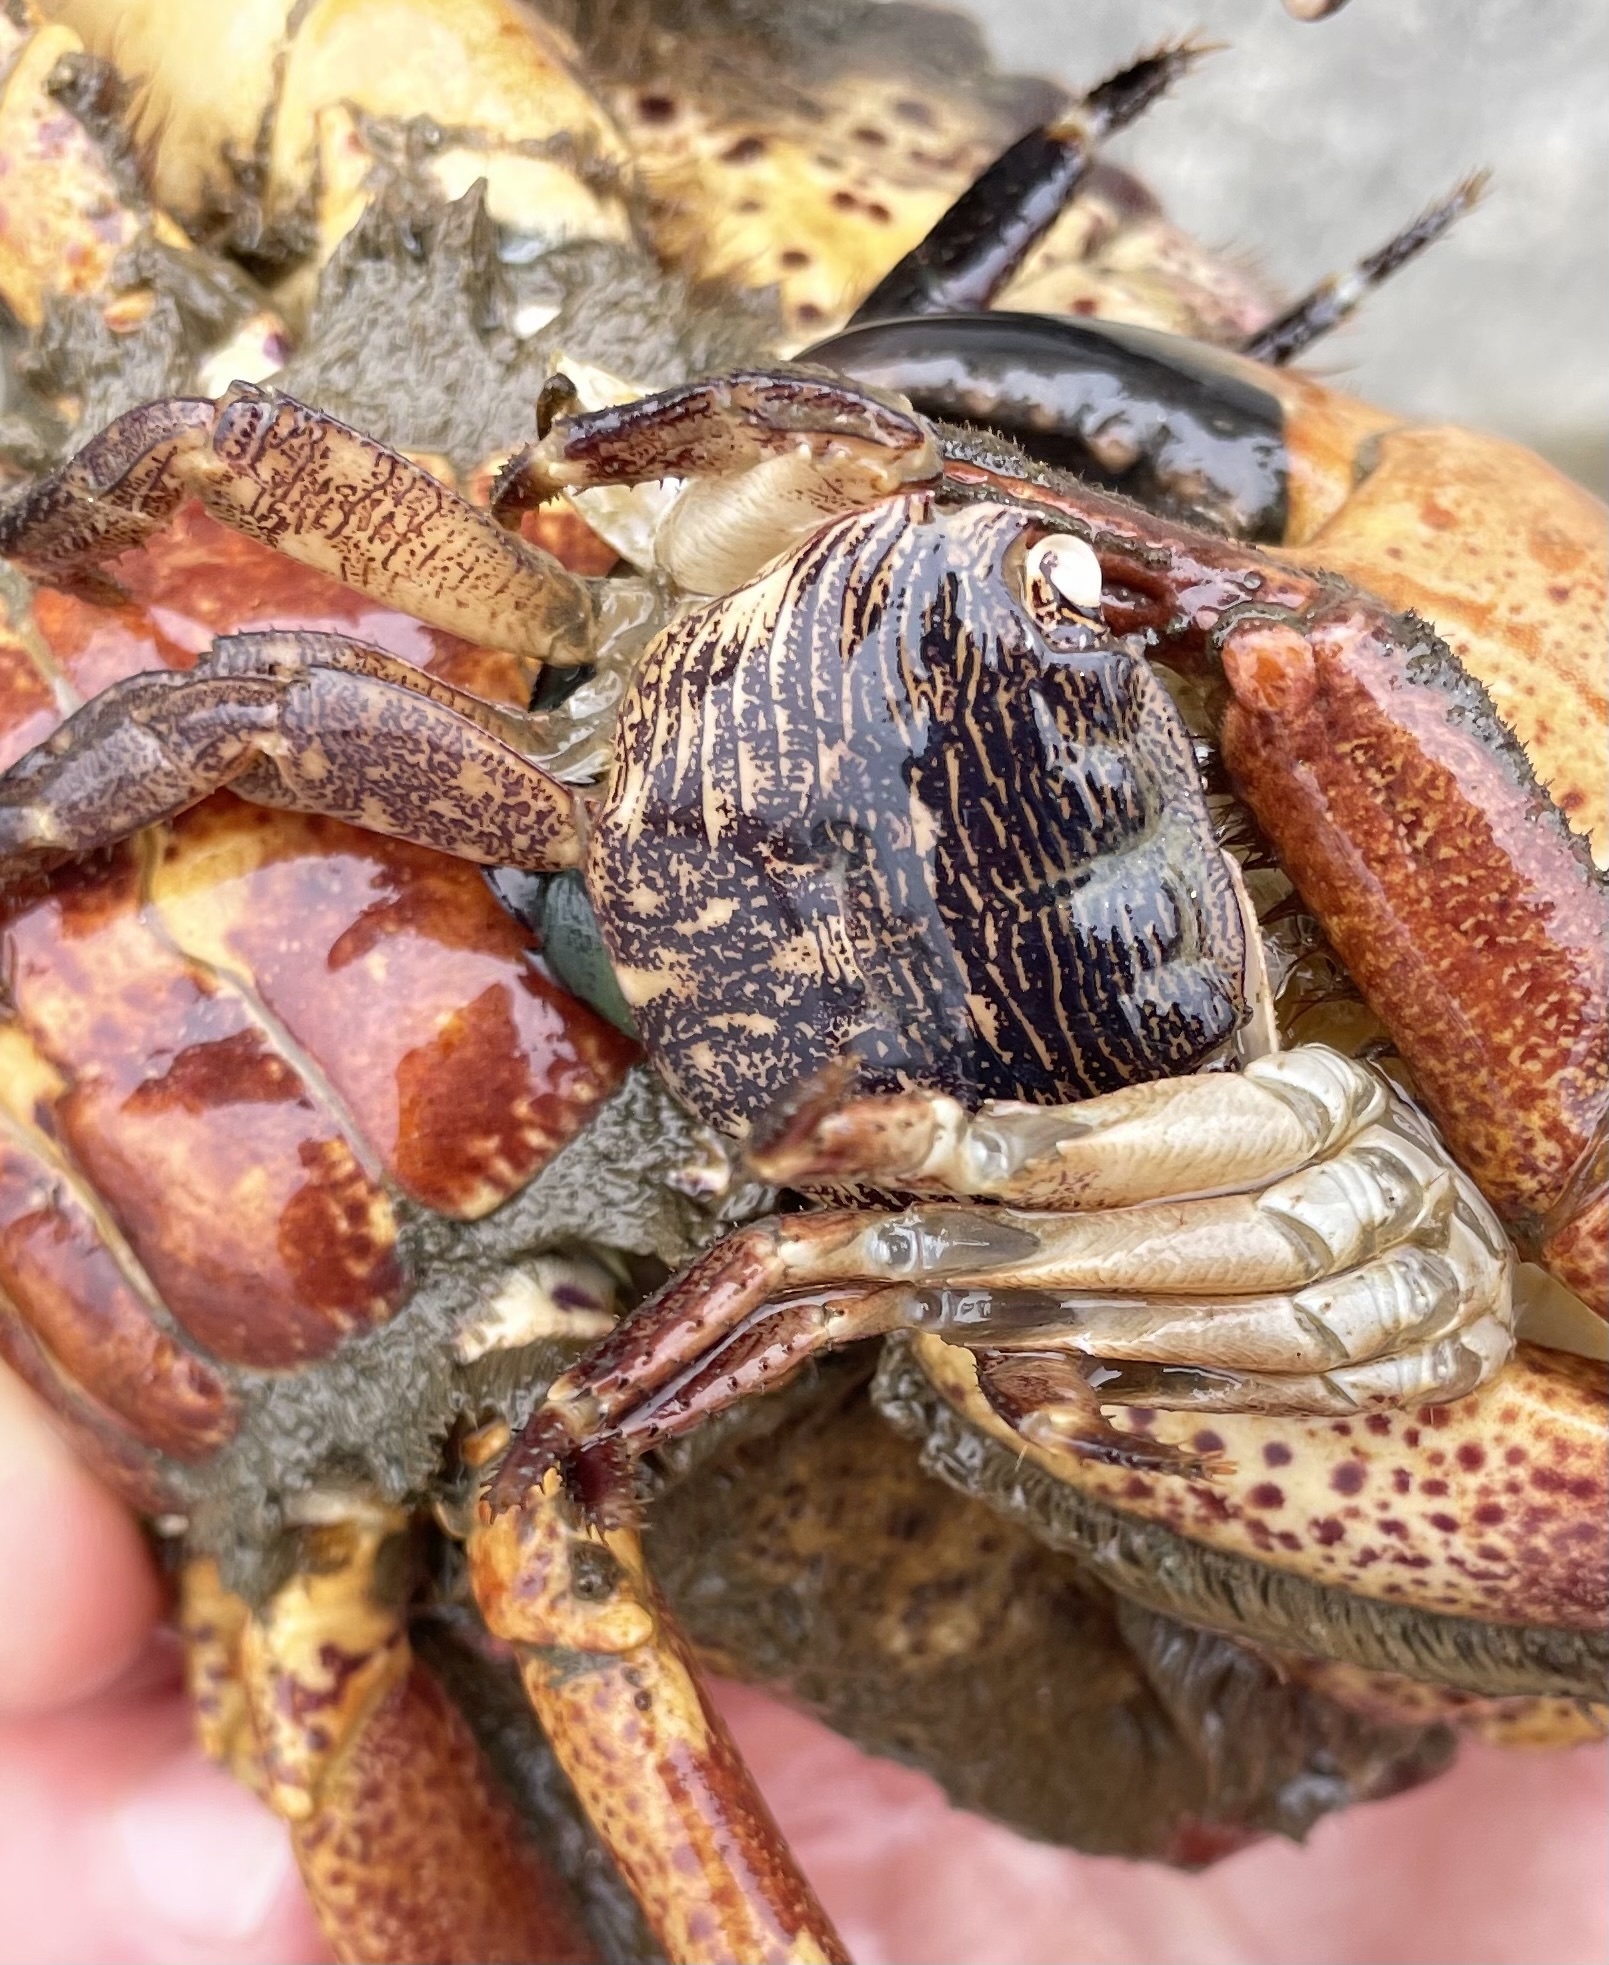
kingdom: Animalia
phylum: Arthropoda
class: Malacostraca
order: Decapoda
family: Grapsidae
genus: Pachygrapsus
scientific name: Pachygrapsus crassipes
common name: Striped shore crab
